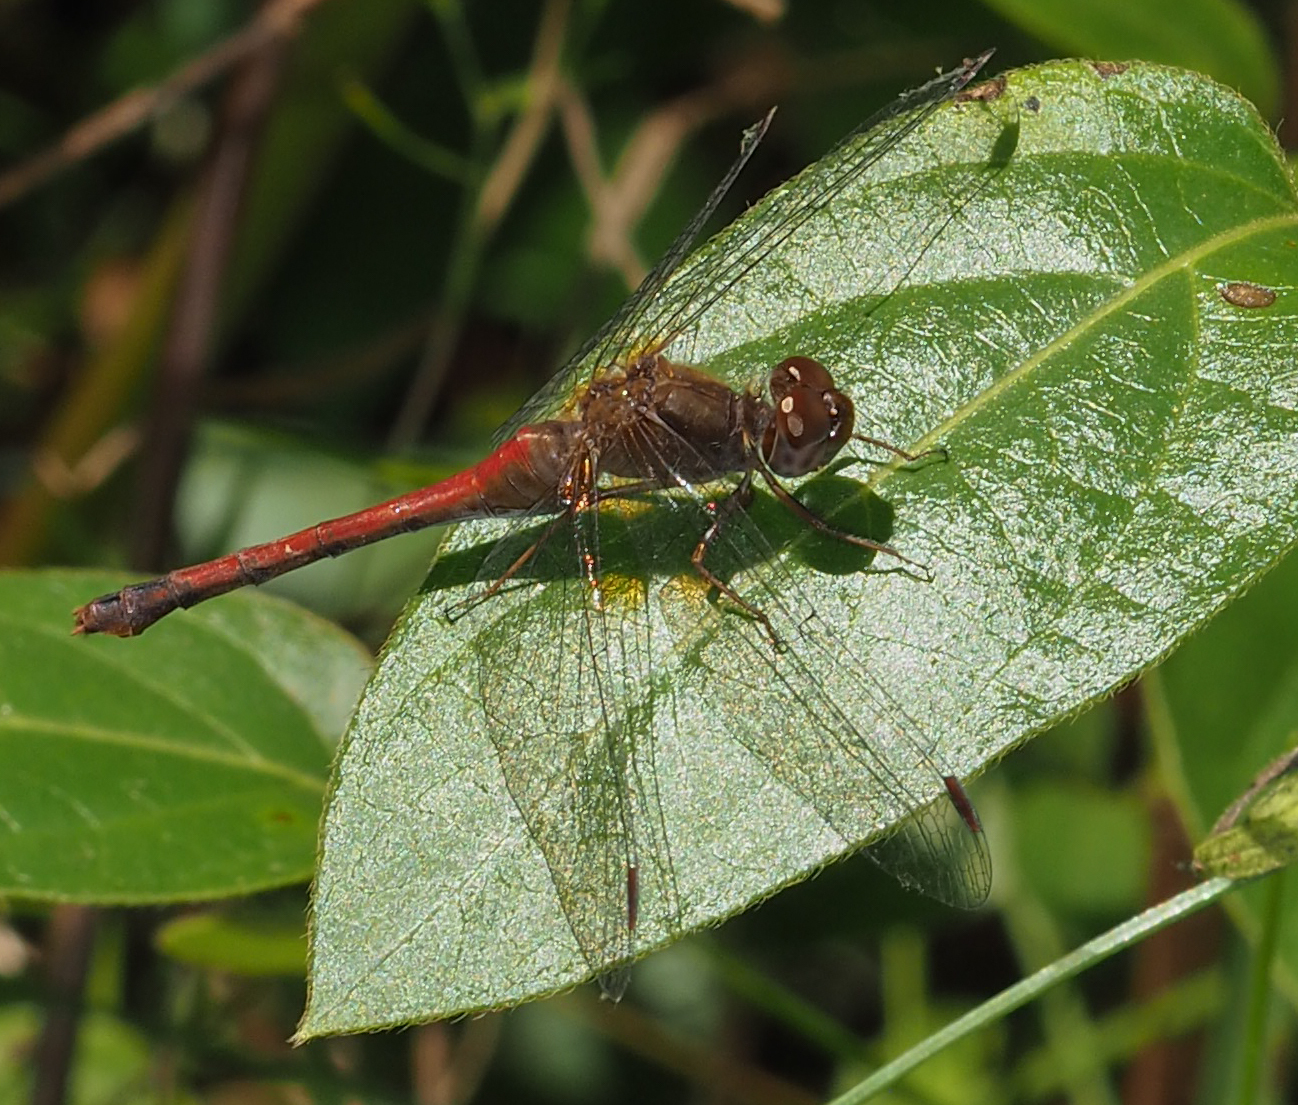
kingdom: Animalia
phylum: Arthropoda
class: Insecta
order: Odonata
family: Libellulidae
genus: Sympetrum
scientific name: Sympetrum vicinum
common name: Autumn meadowhawk
